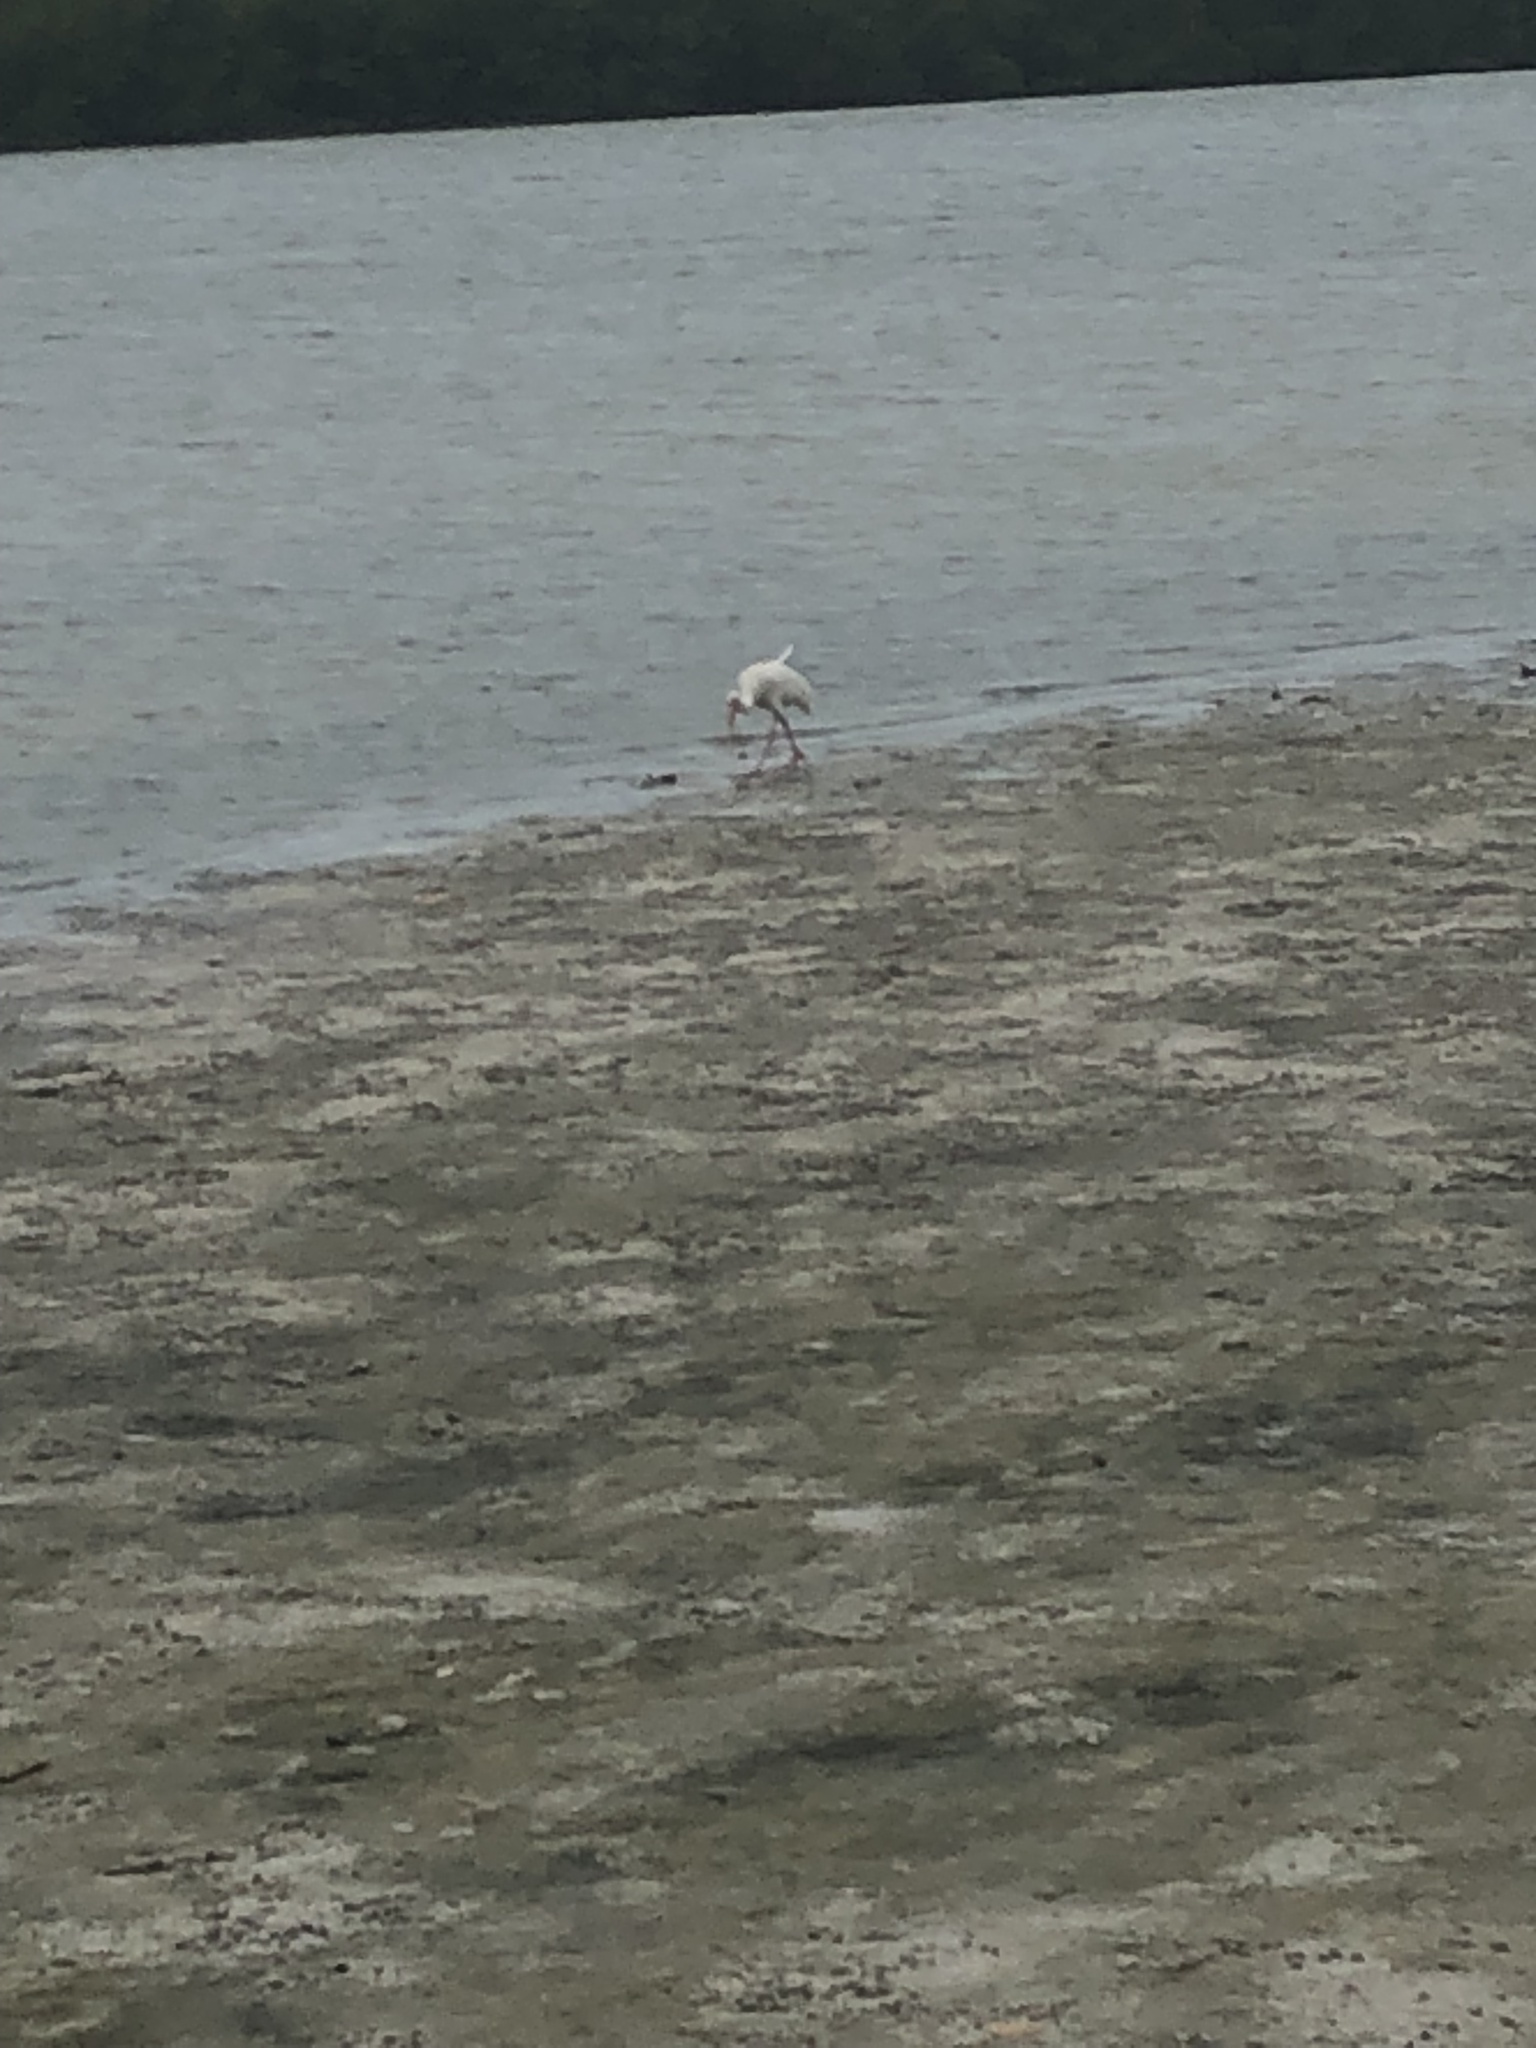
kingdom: Animalia
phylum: Chordata
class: Aves
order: Pelecaniformes
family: Threskiornithidae
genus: Eudocimus
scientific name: Eudocimus albus
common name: White ibis
